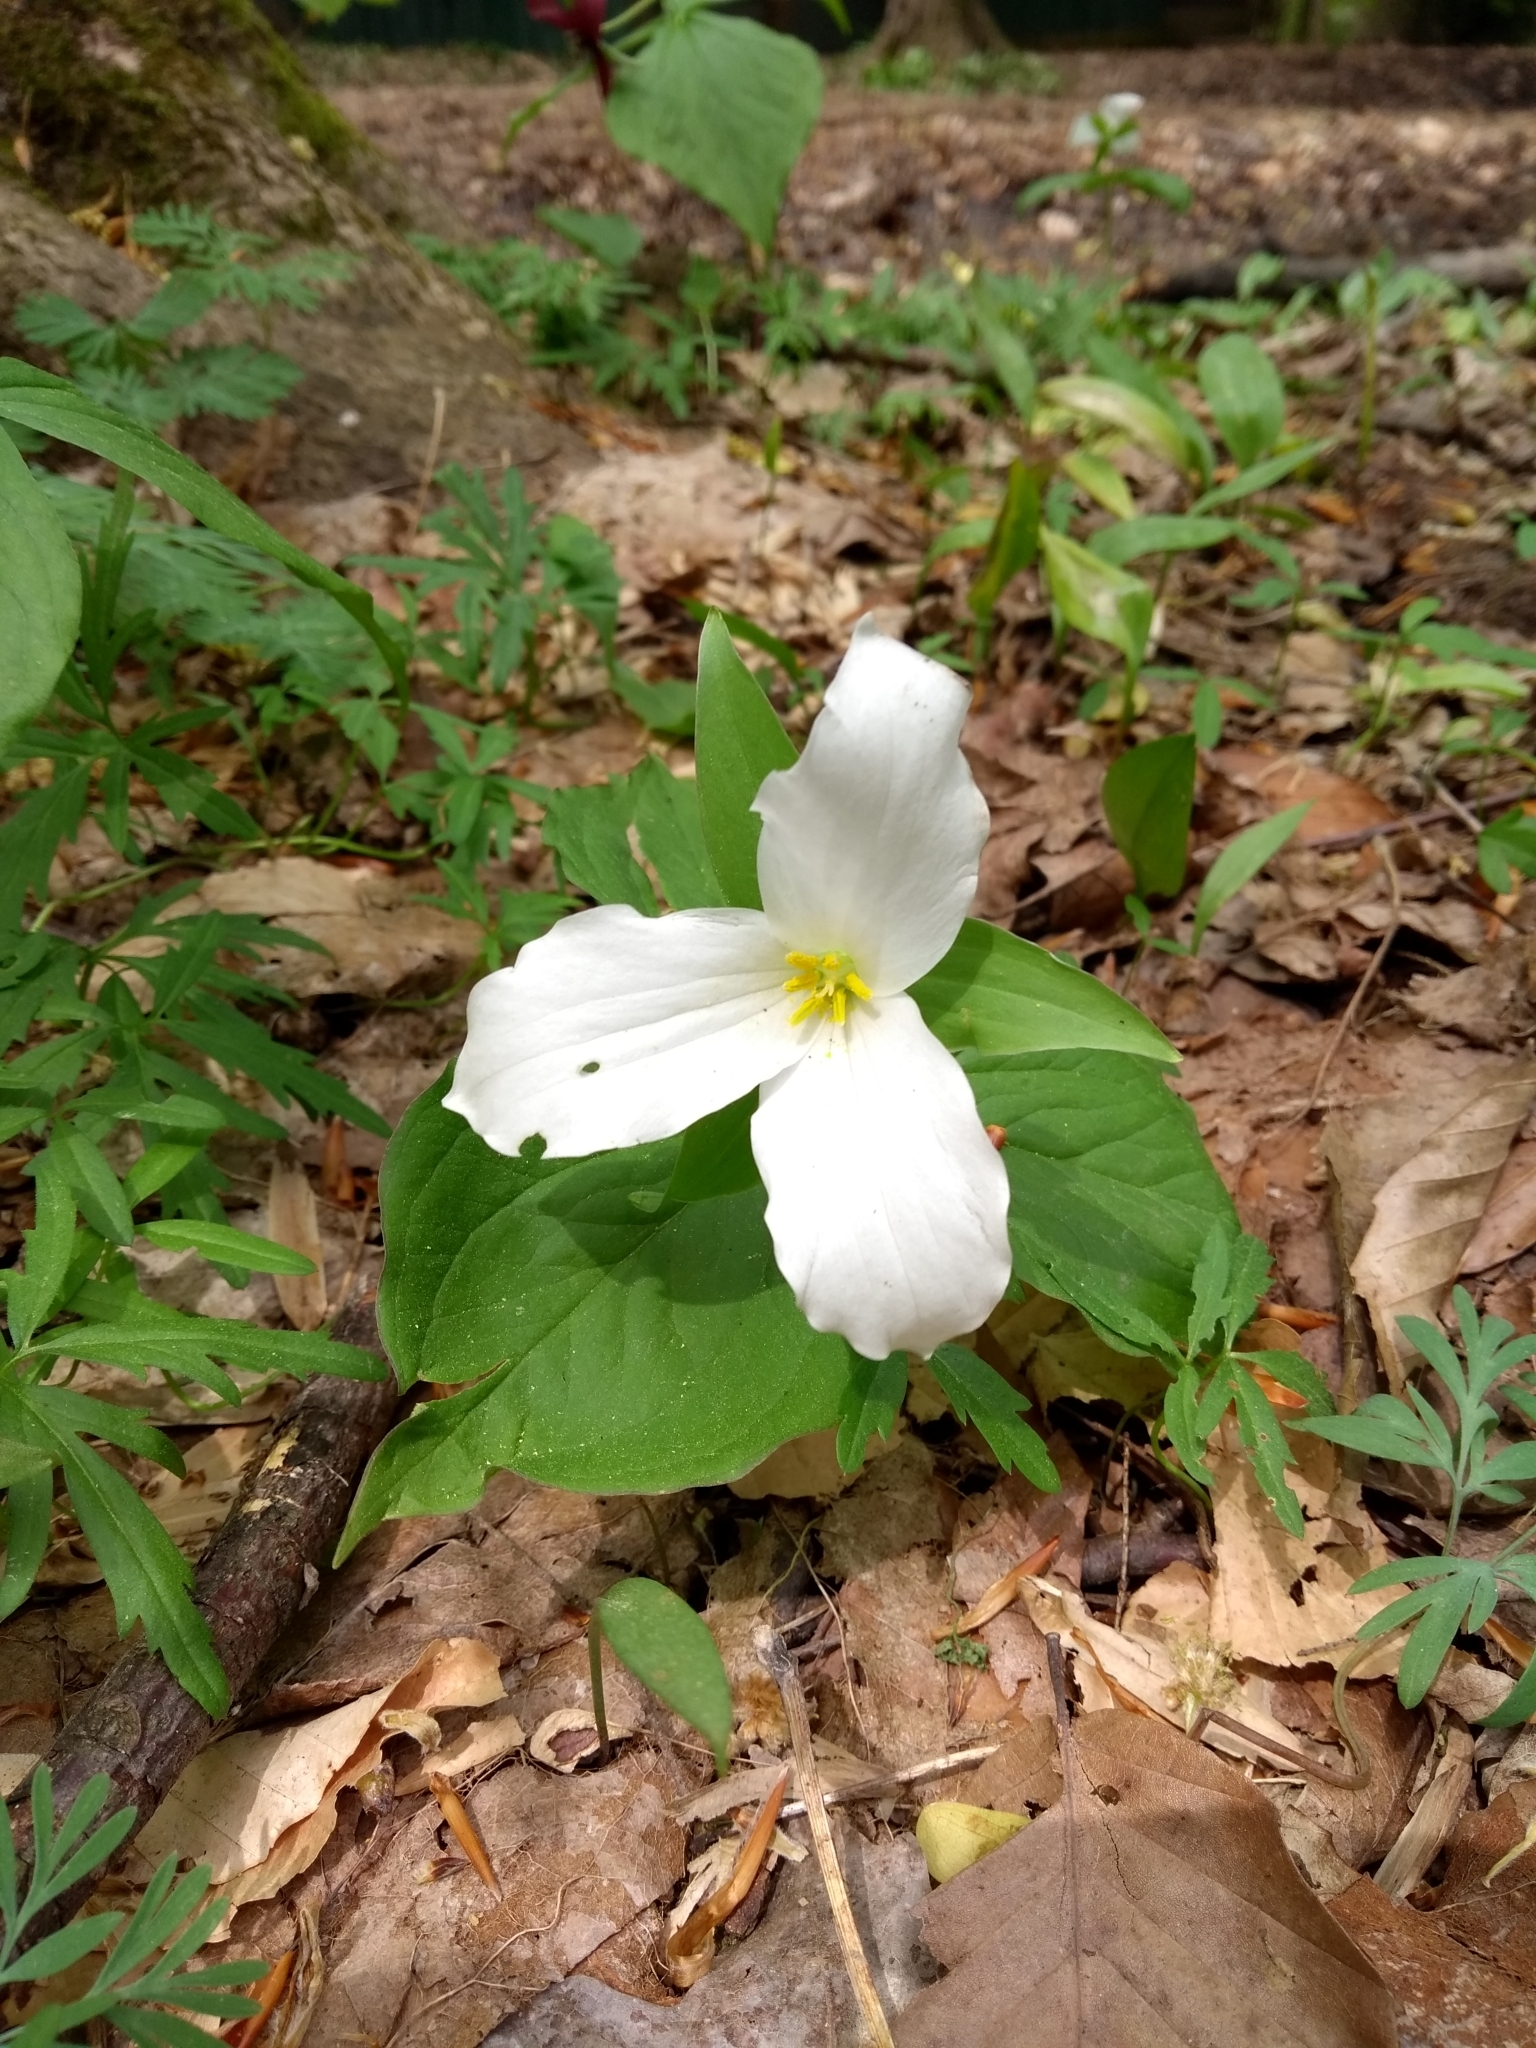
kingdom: Plantae
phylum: Tracheophyta
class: Liliopsida
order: Liliales
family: Melanthiaceae
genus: Trillium
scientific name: Trillium grandiflorum
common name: Great white trillium
